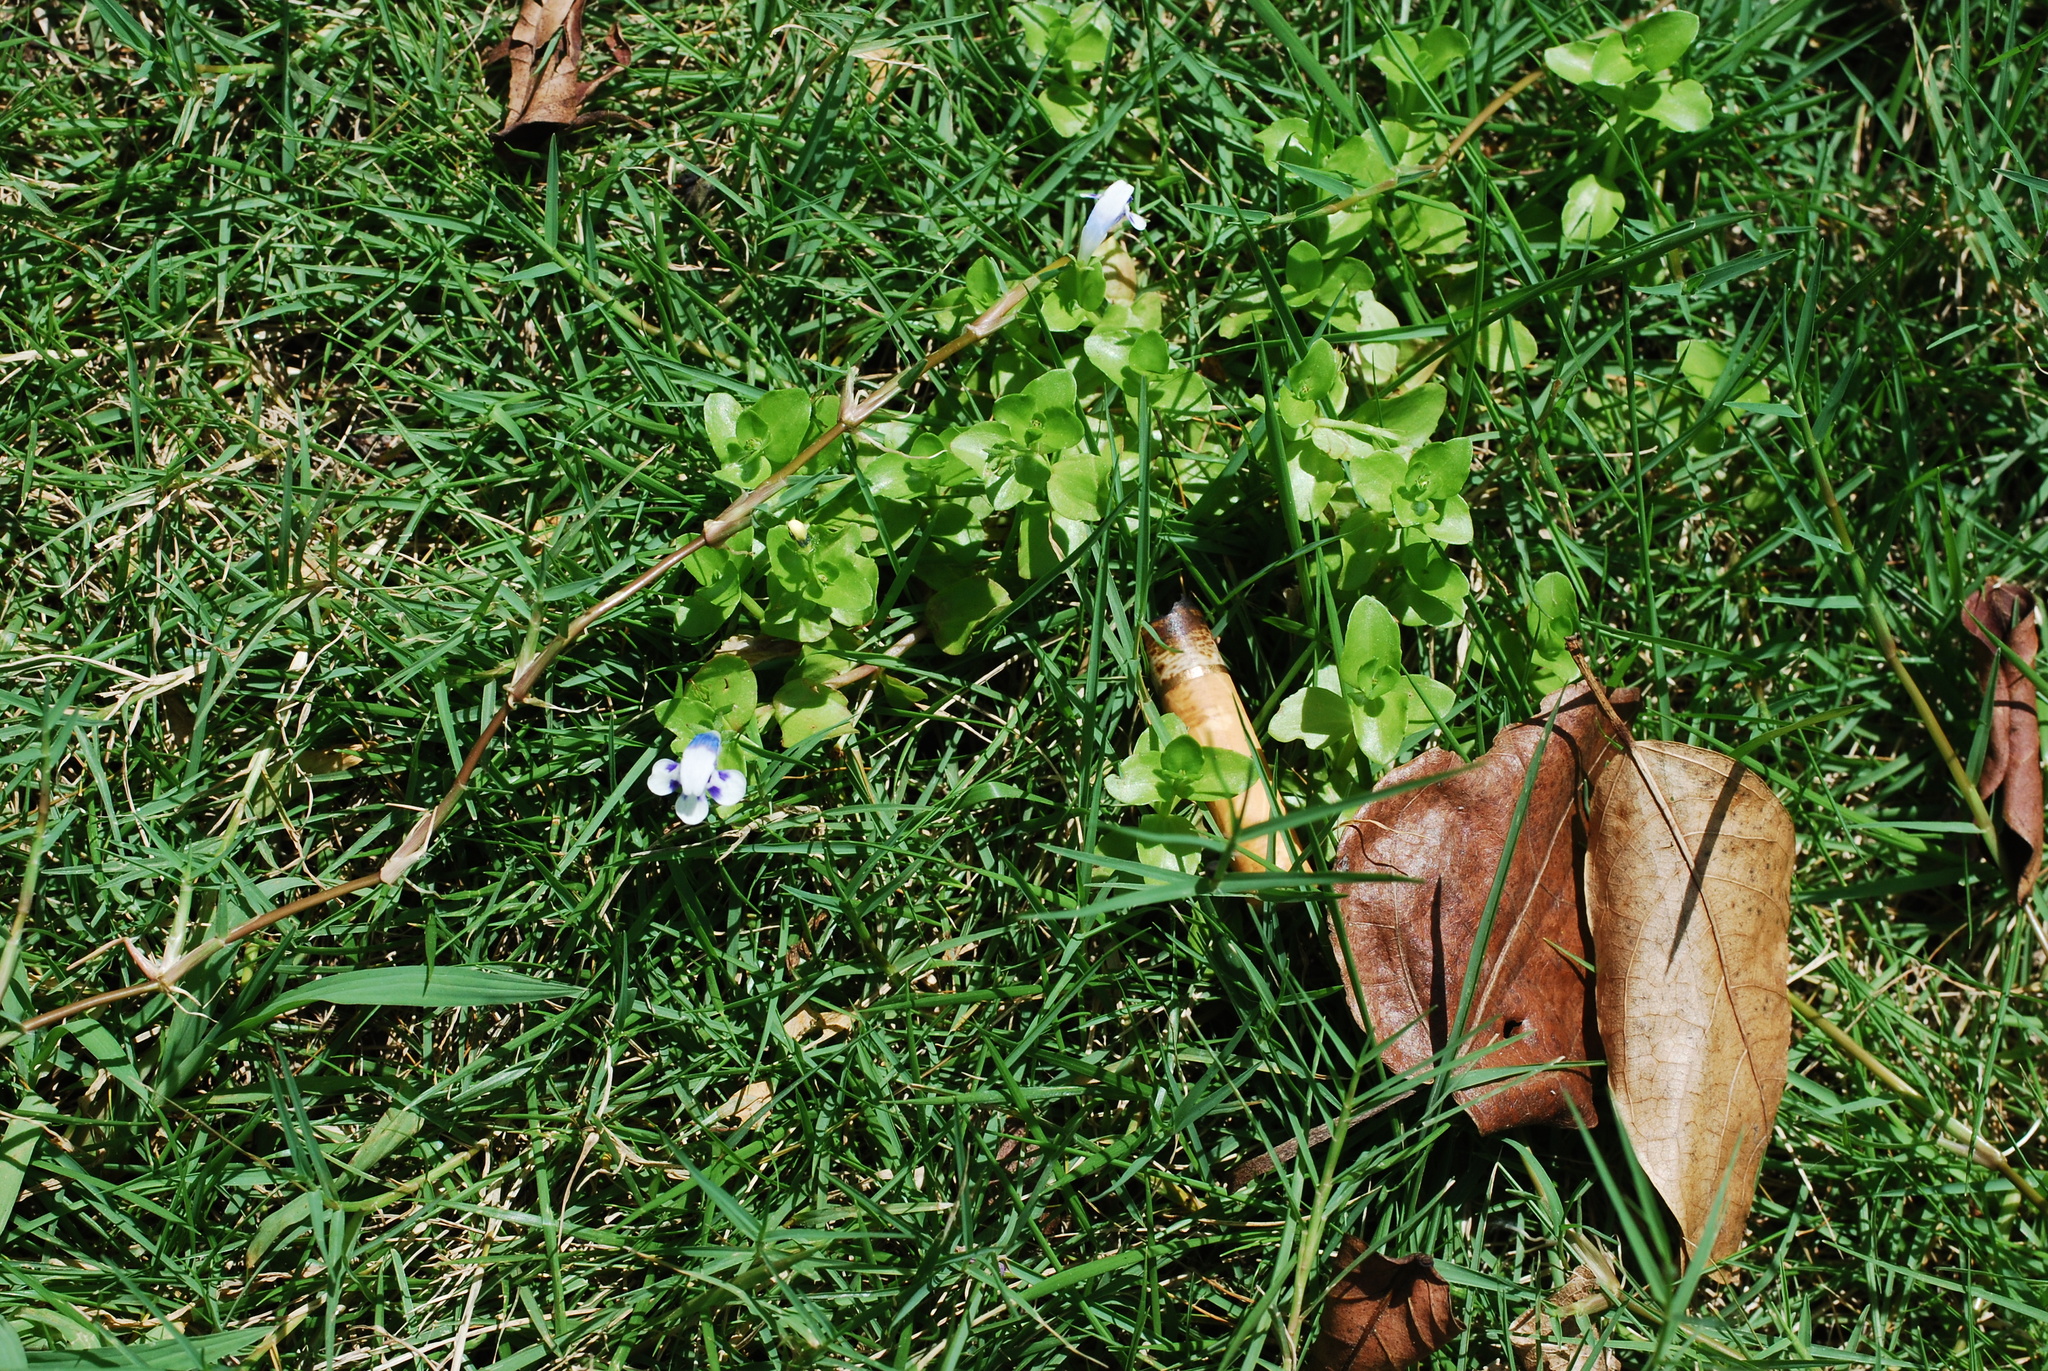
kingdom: Plantae
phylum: Tracheophyta
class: Magnoliopsida
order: Lamiales
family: Linderniaceae
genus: Lindernia
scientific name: Lindernia rotundifolia
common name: Baby’s tears
